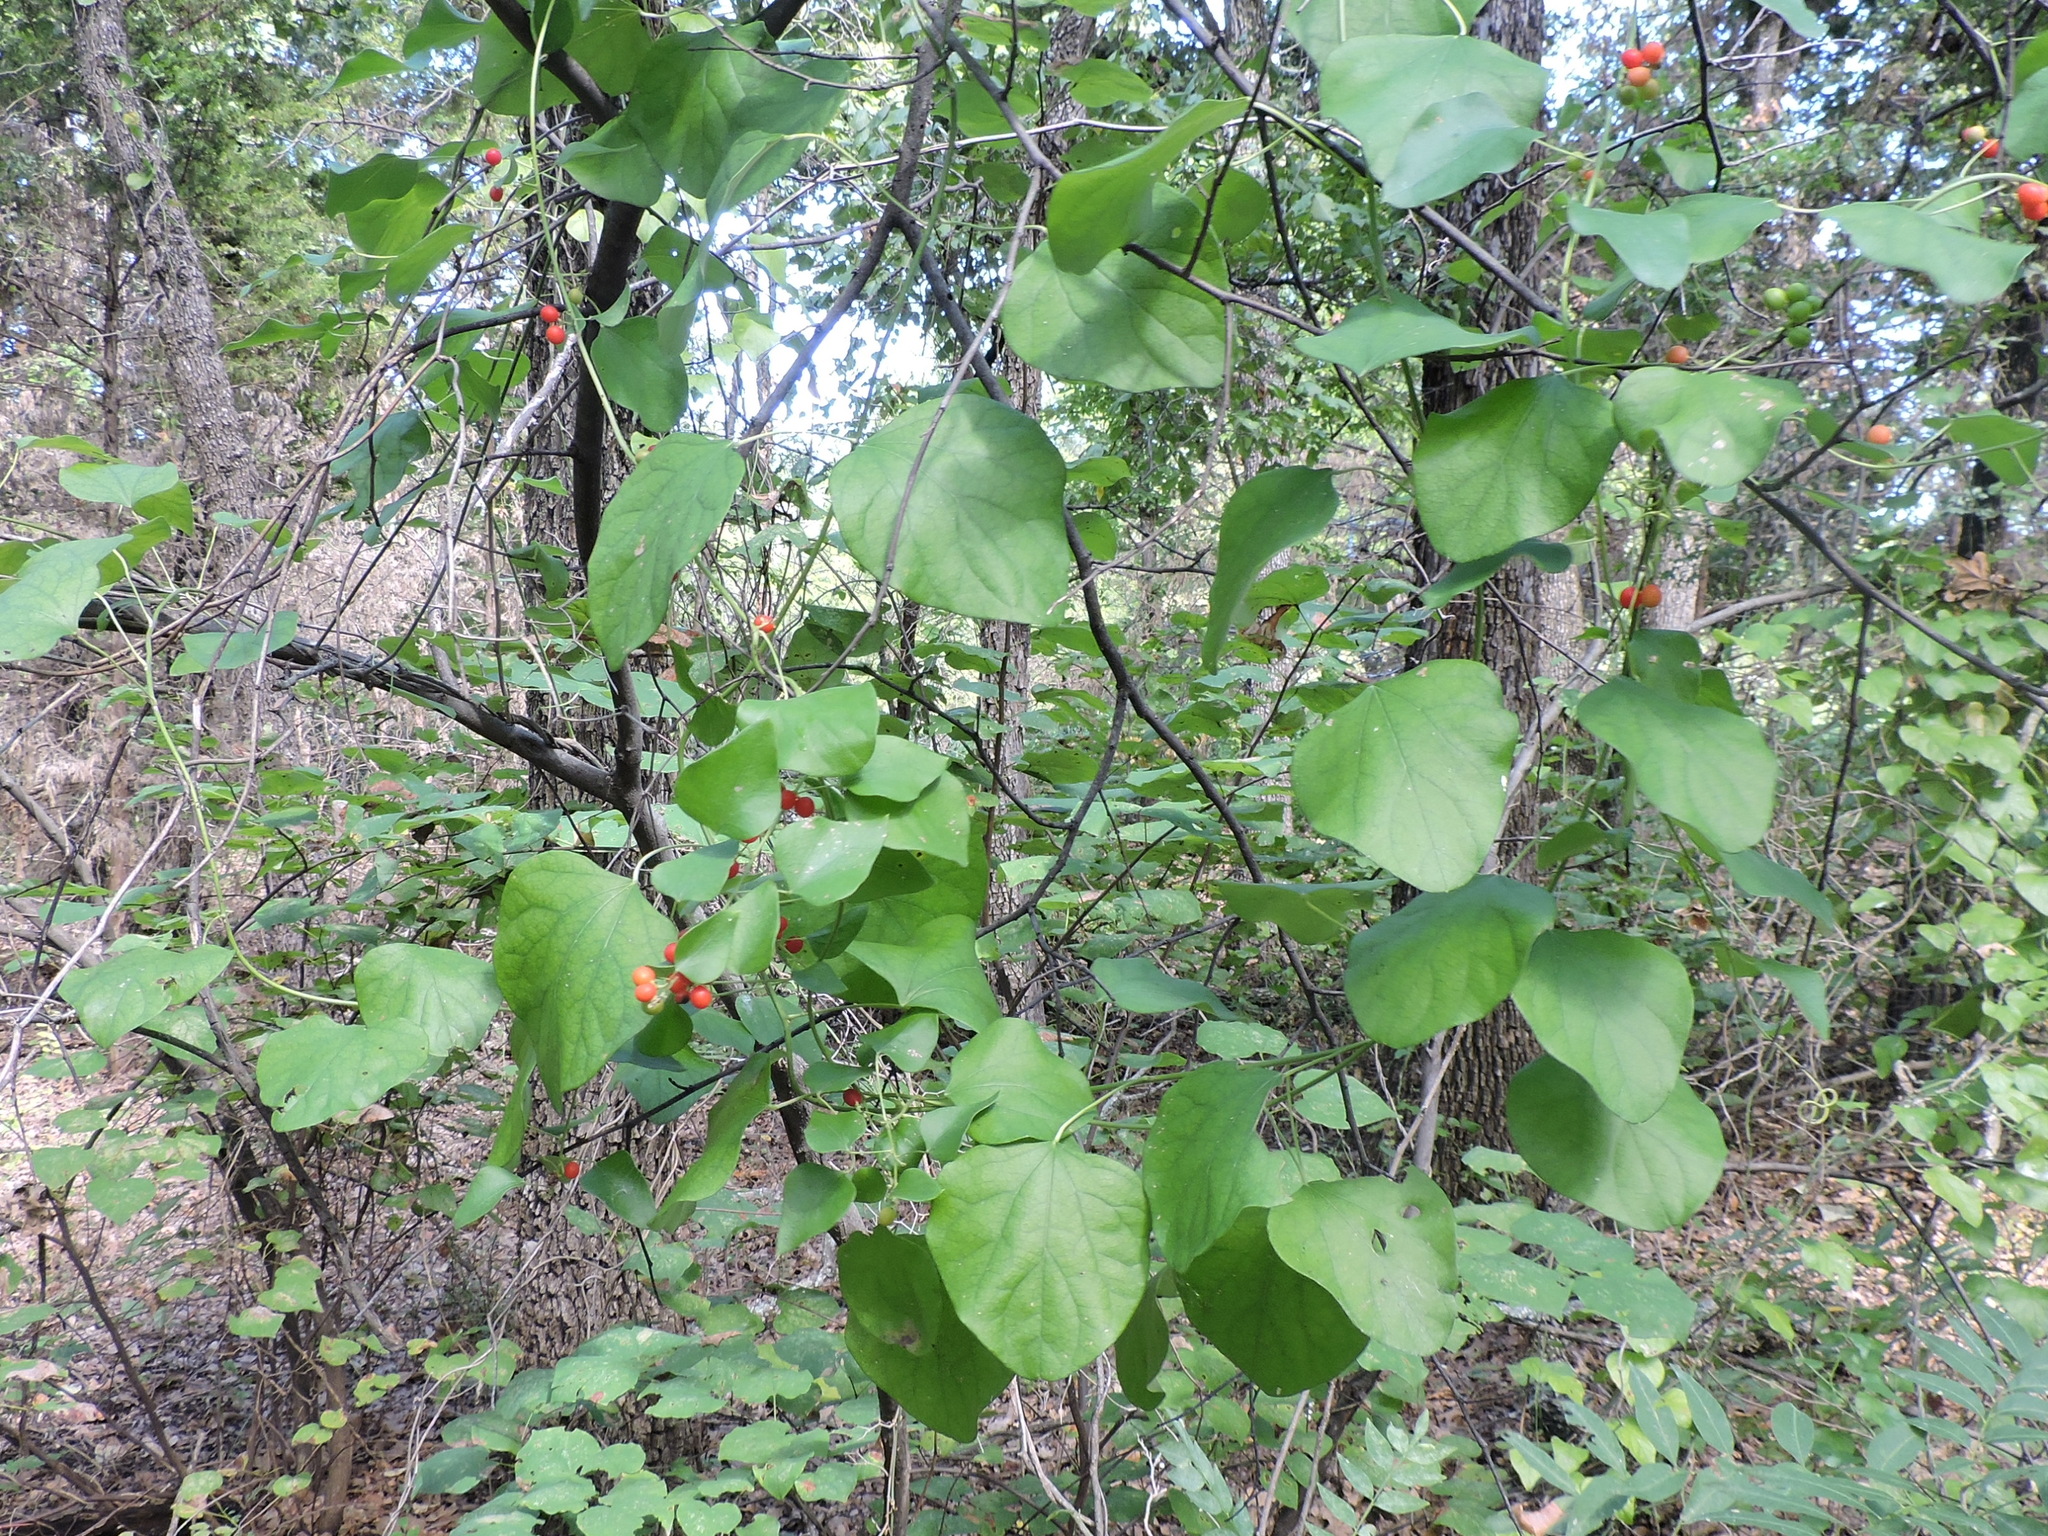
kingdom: Plantae
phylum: Tracheophyta
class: Magnoliopsida
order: Ranunculales
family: Menispermaceae
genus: Cocculus
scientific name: Cocculus carolinus
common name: Carolina moonseed
